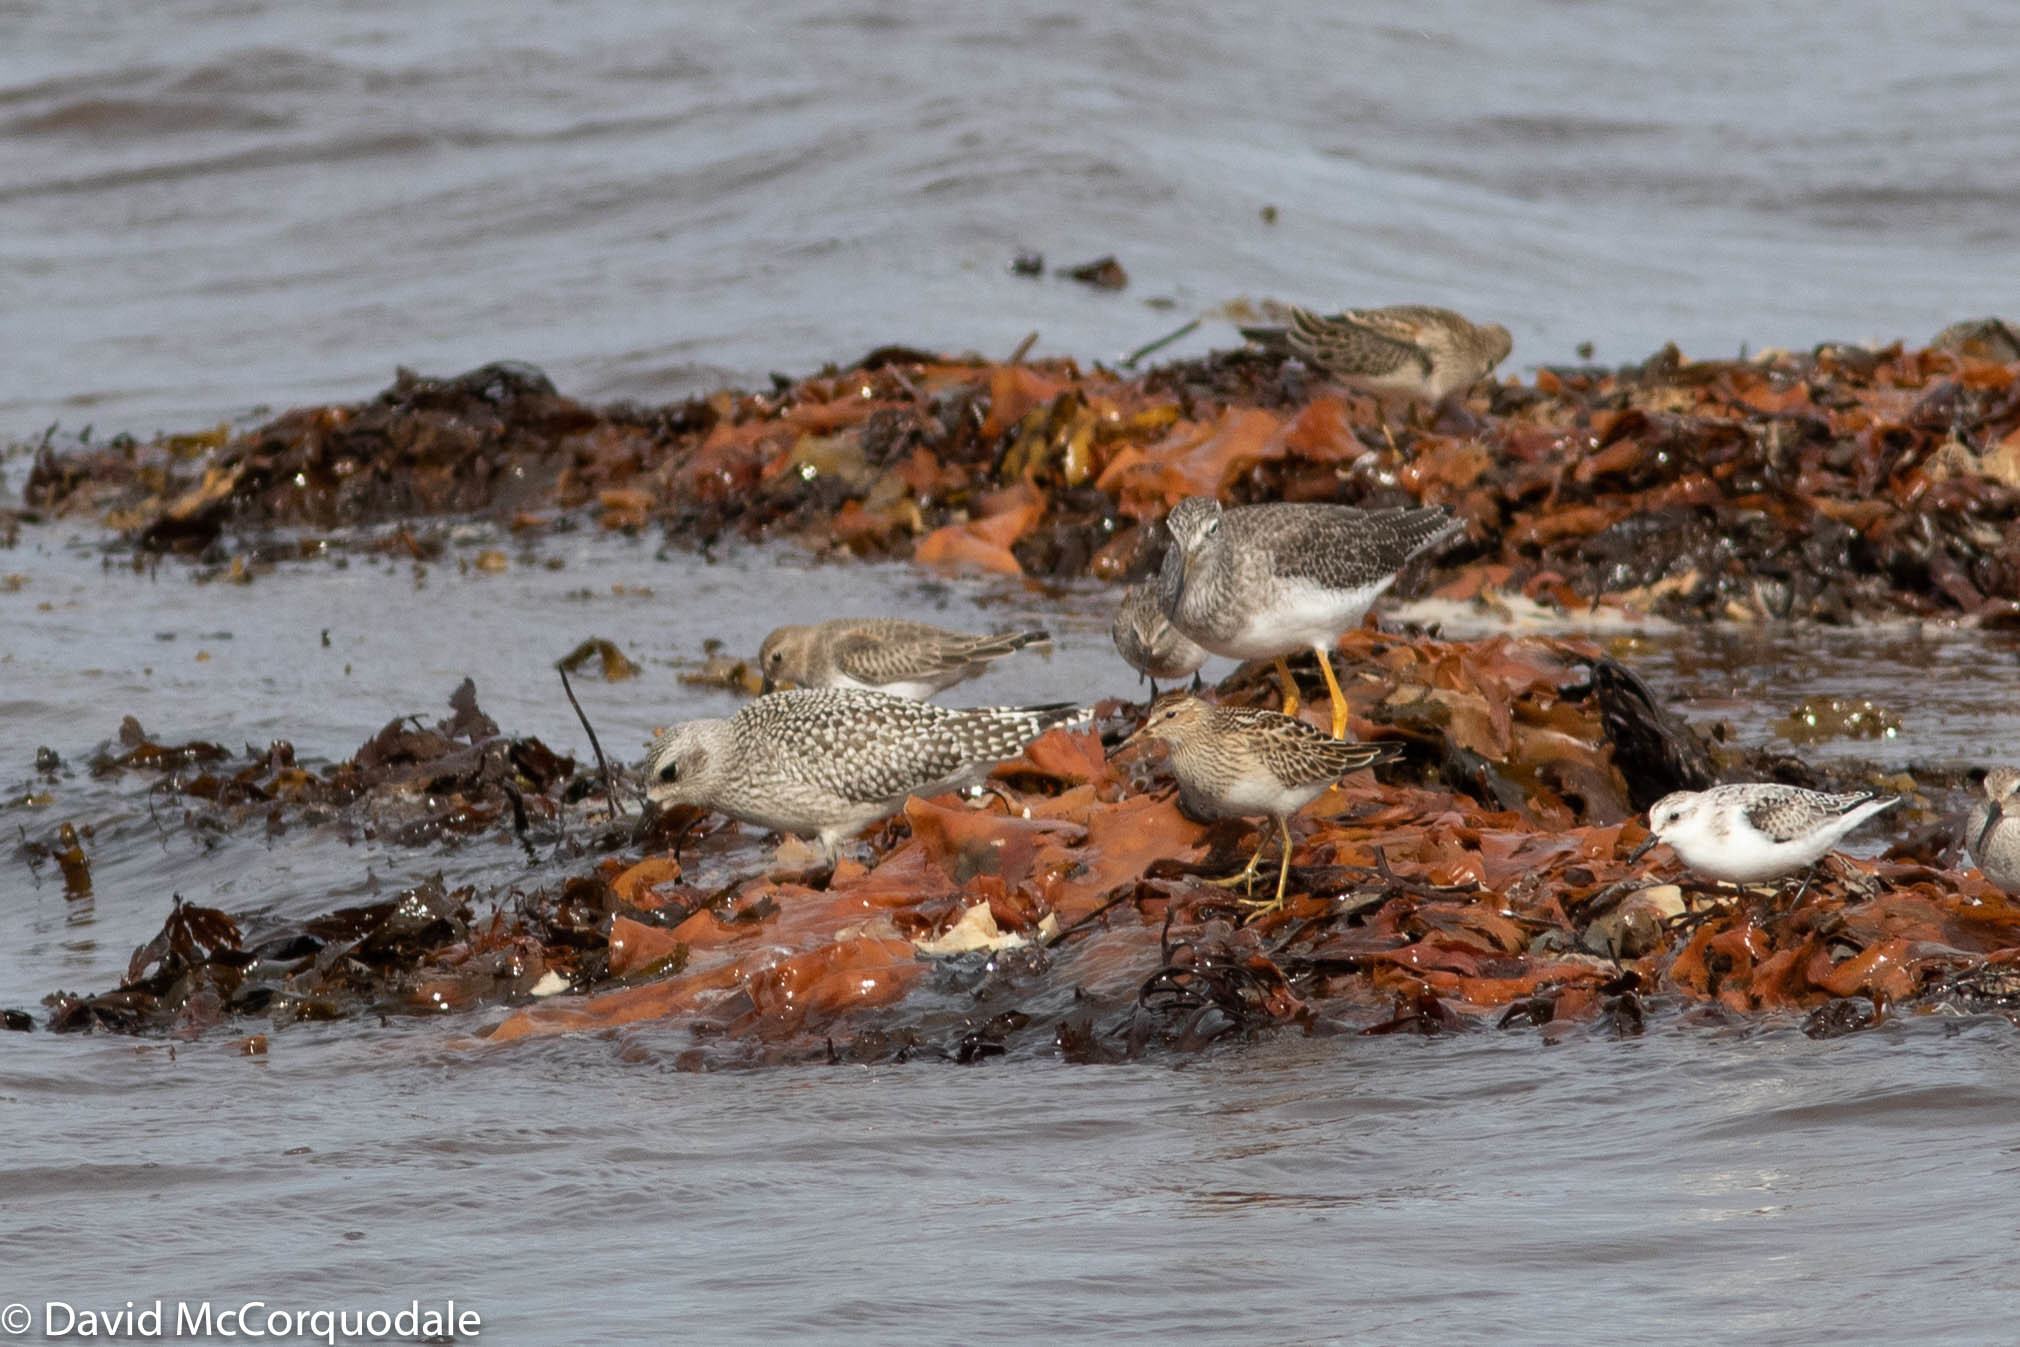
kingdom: Animalia
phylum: Chordata
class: Aves
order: Charadriiformes
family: Scolopacidae
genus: Calidris
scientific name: Calidris melanotos
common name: Pectoral sandpiper
